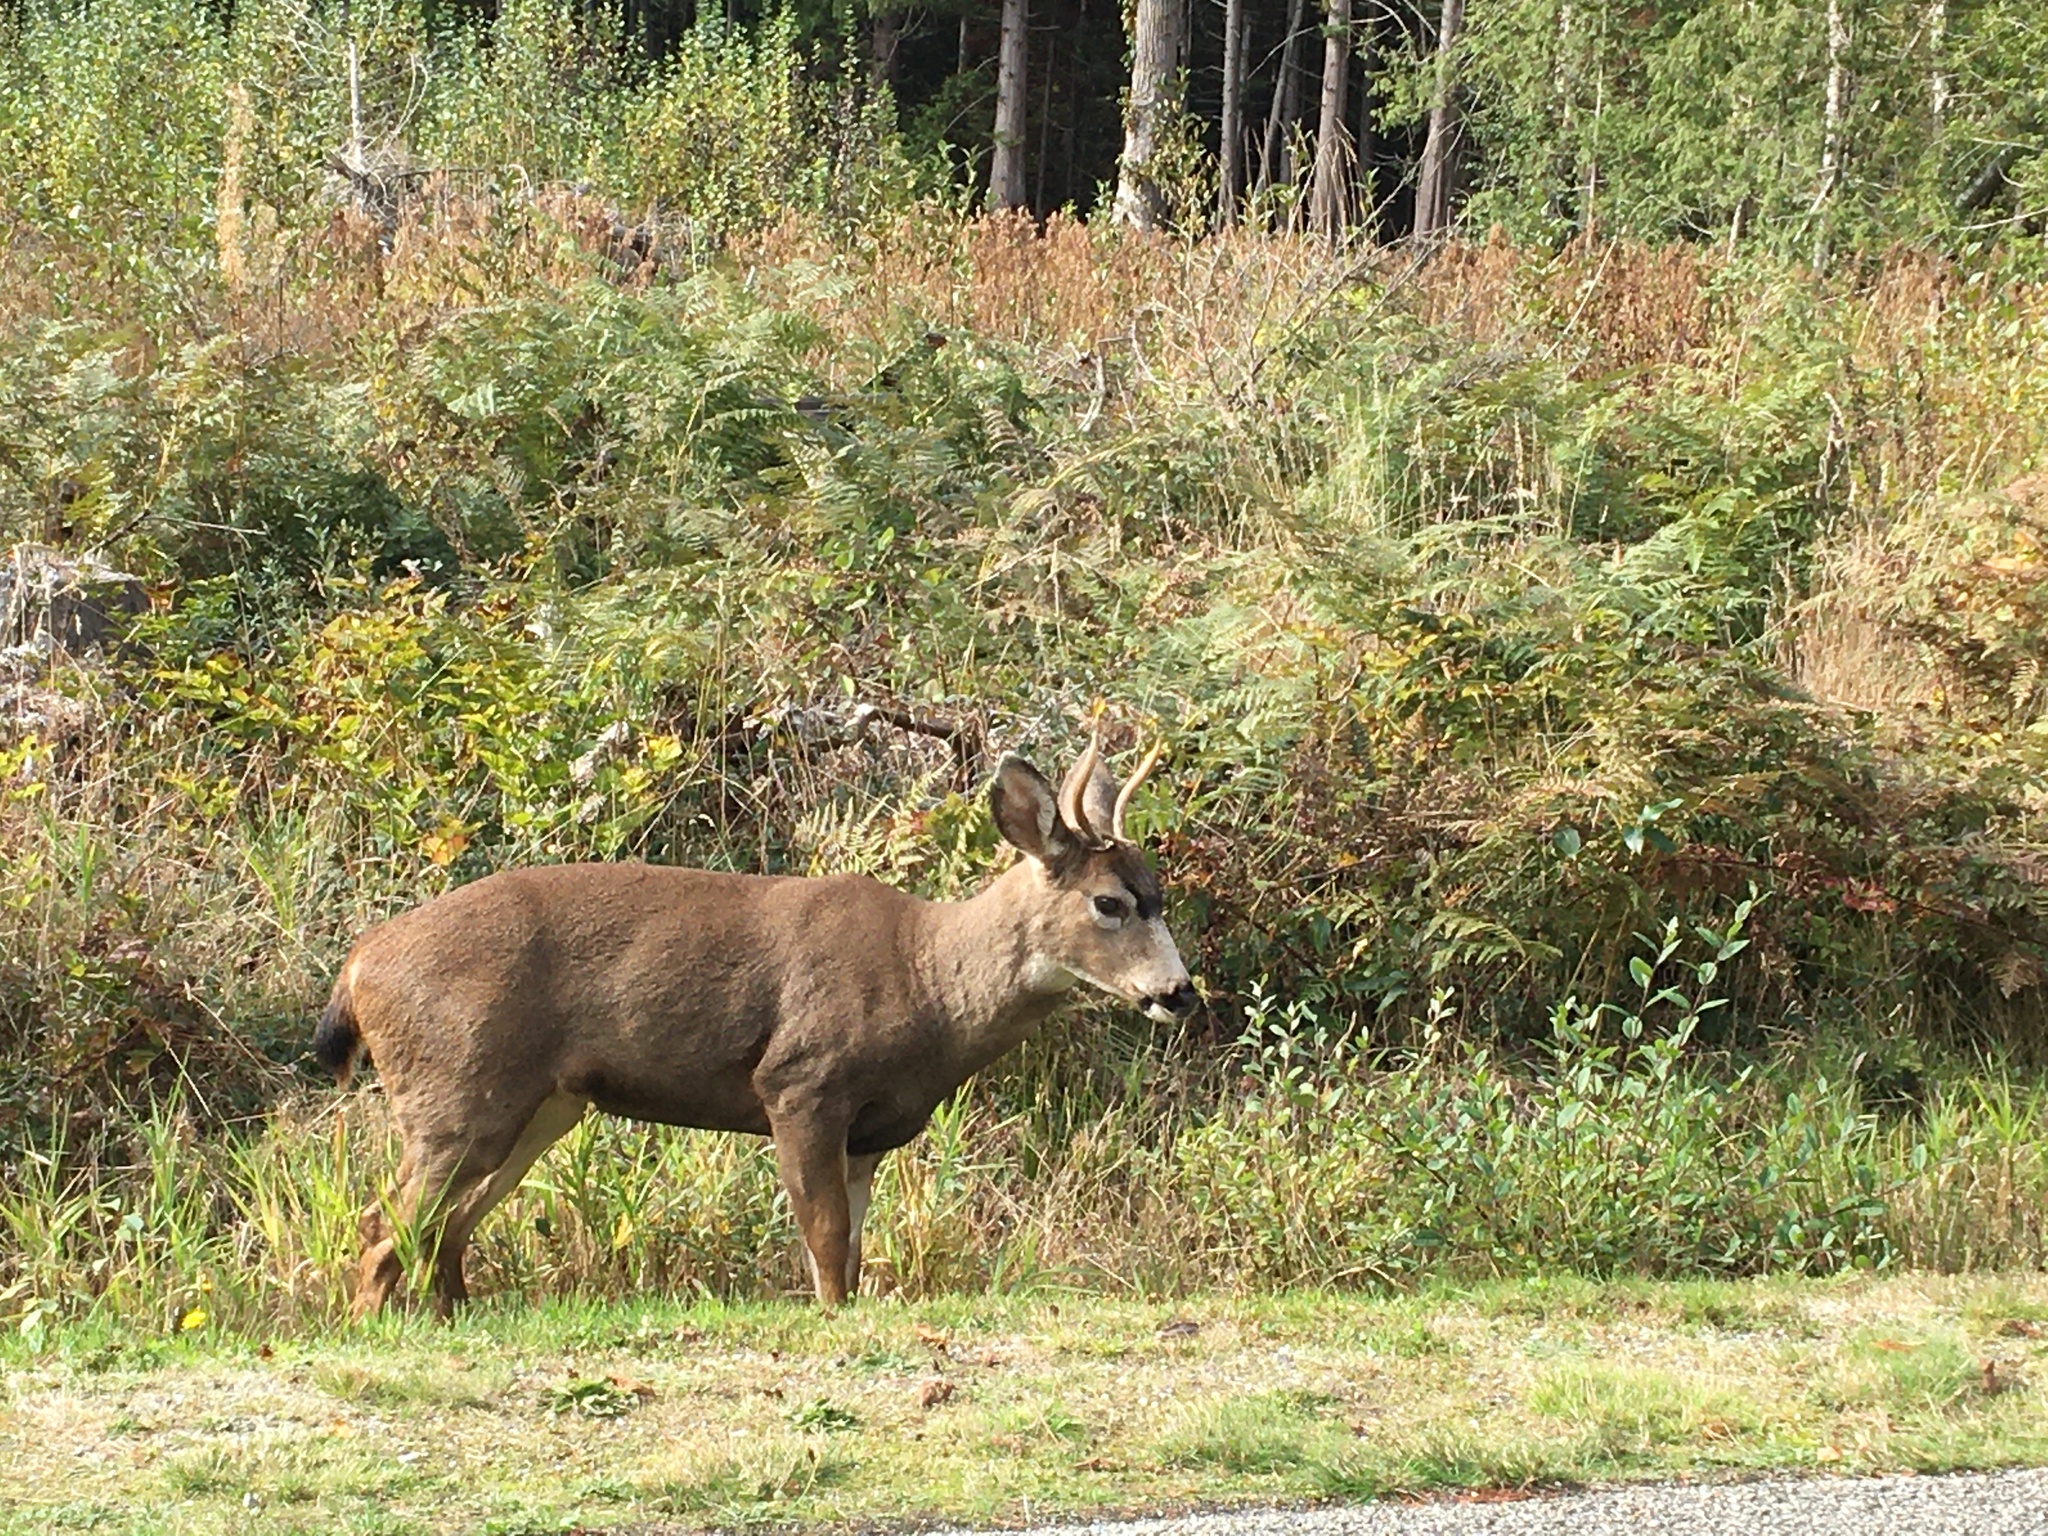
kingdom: Animalia
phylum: Chordata
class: Mammalia
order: Artiodactyla
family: Cervidae
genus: Odocoileus
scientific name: Odocoileus hemionus
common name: Mule deer
